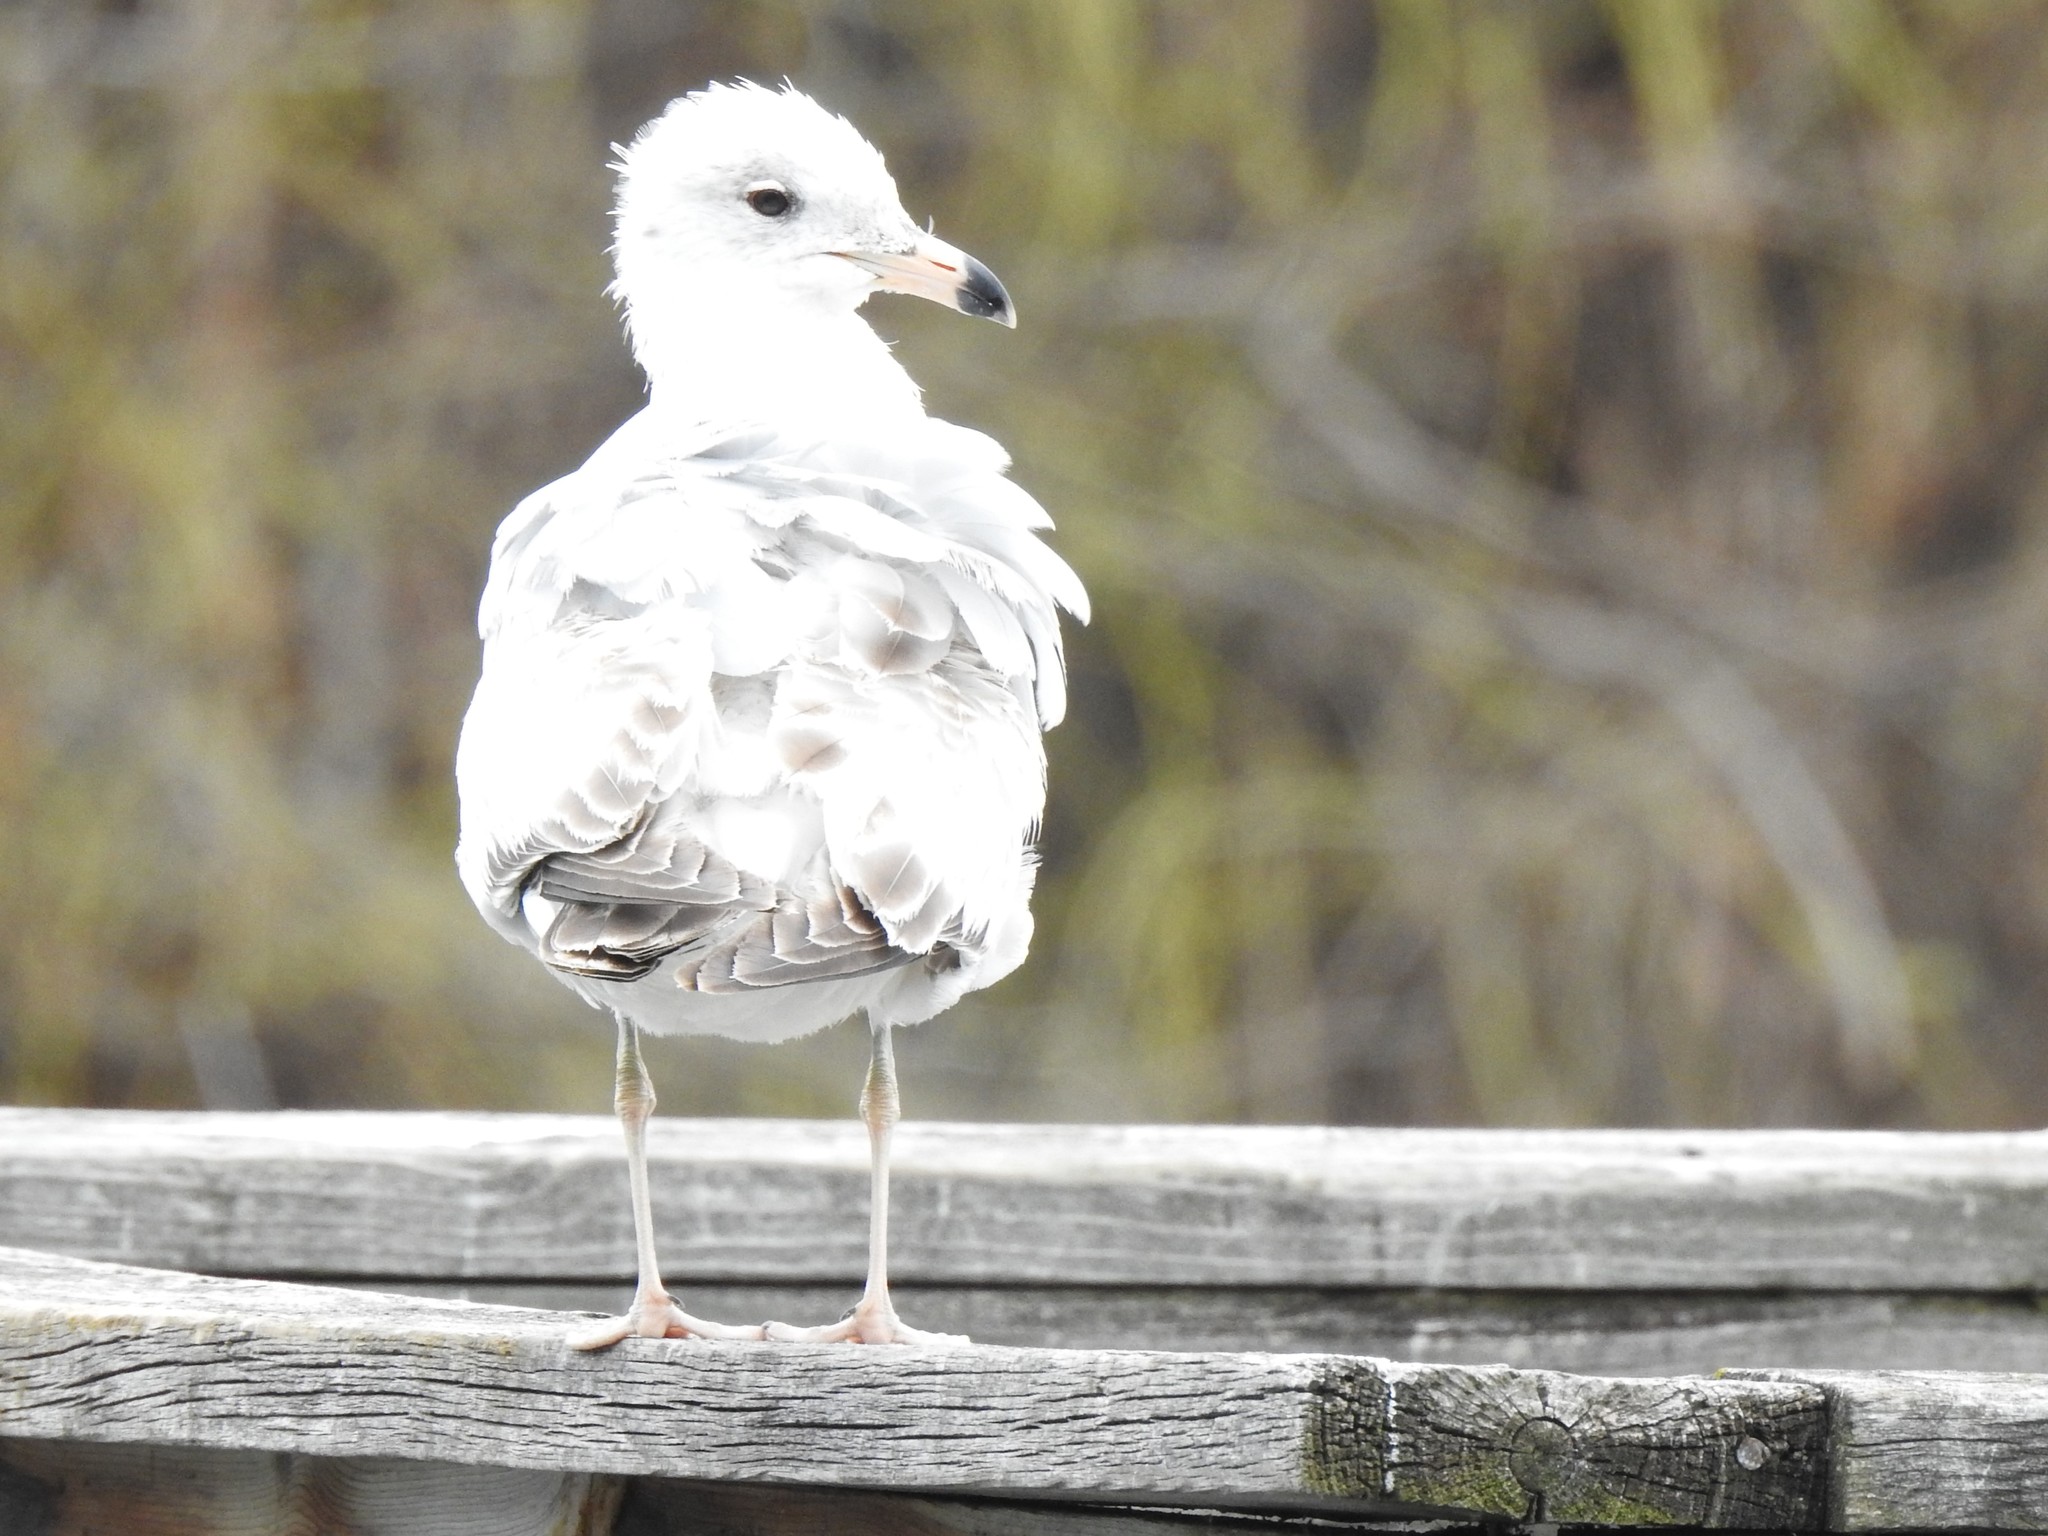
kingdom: Animalia
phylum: Chordata
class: Aves
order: Charadriiformes
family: Laridae
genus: Larus
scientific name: Larus delawarensis
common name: Ring-billed gull
